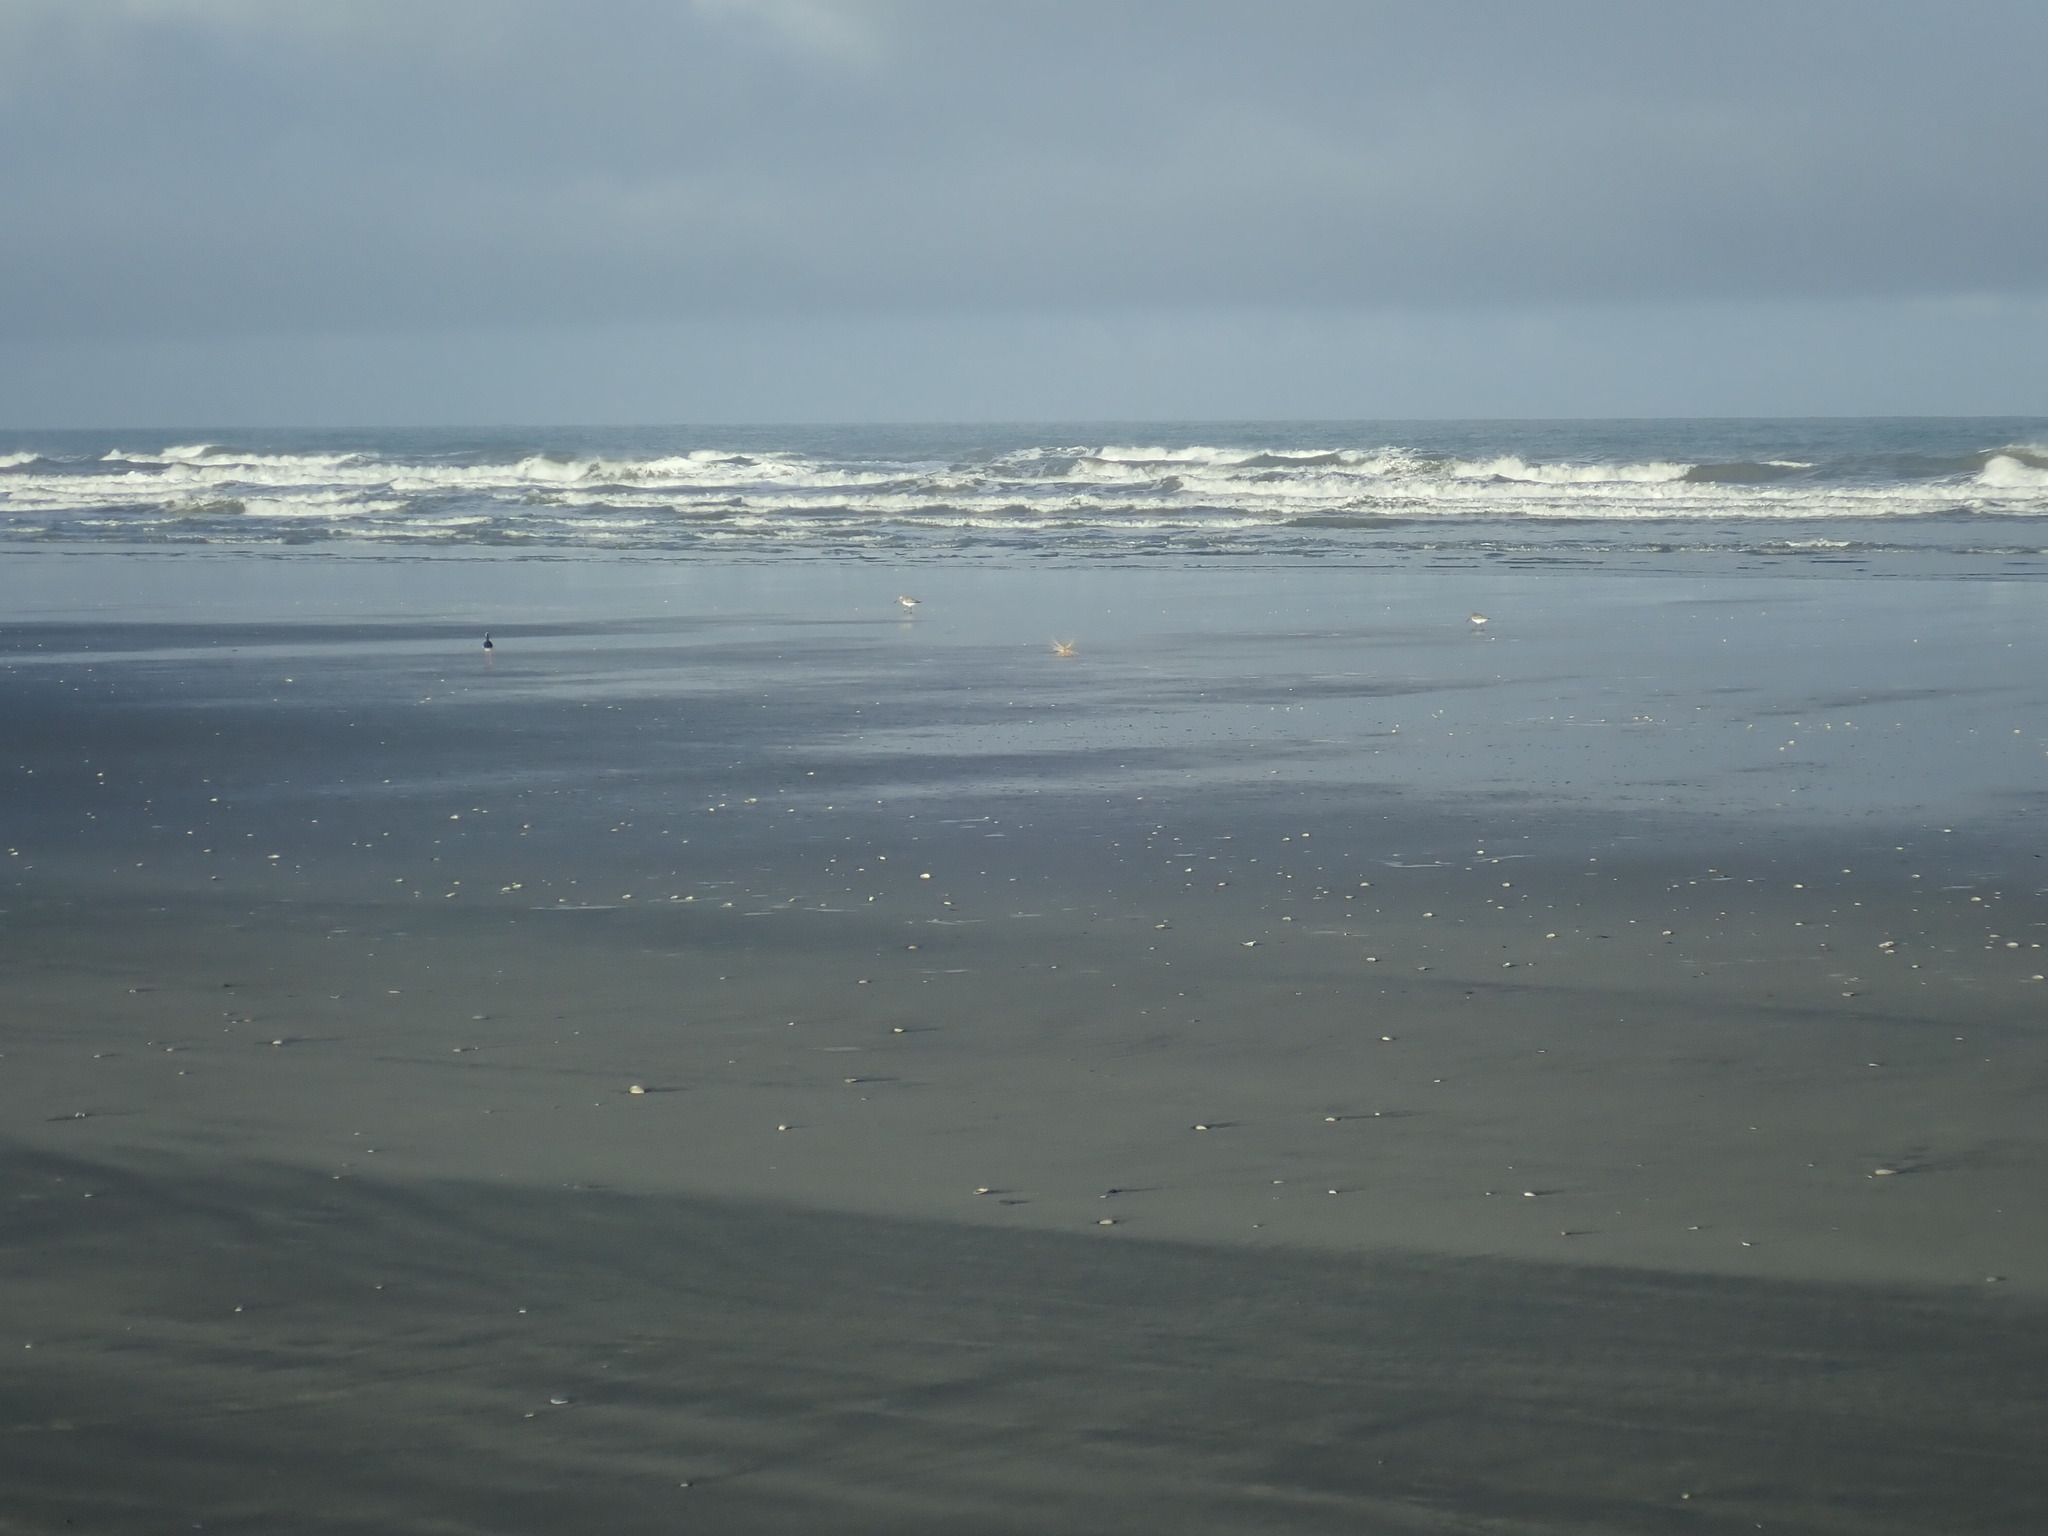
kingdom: Animalia
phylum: Chordata
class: Aves
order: Charadriiformes
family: Scolopacidae
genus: Limosa
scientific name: Limosa lapponica
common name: Bar-tailed godwit
